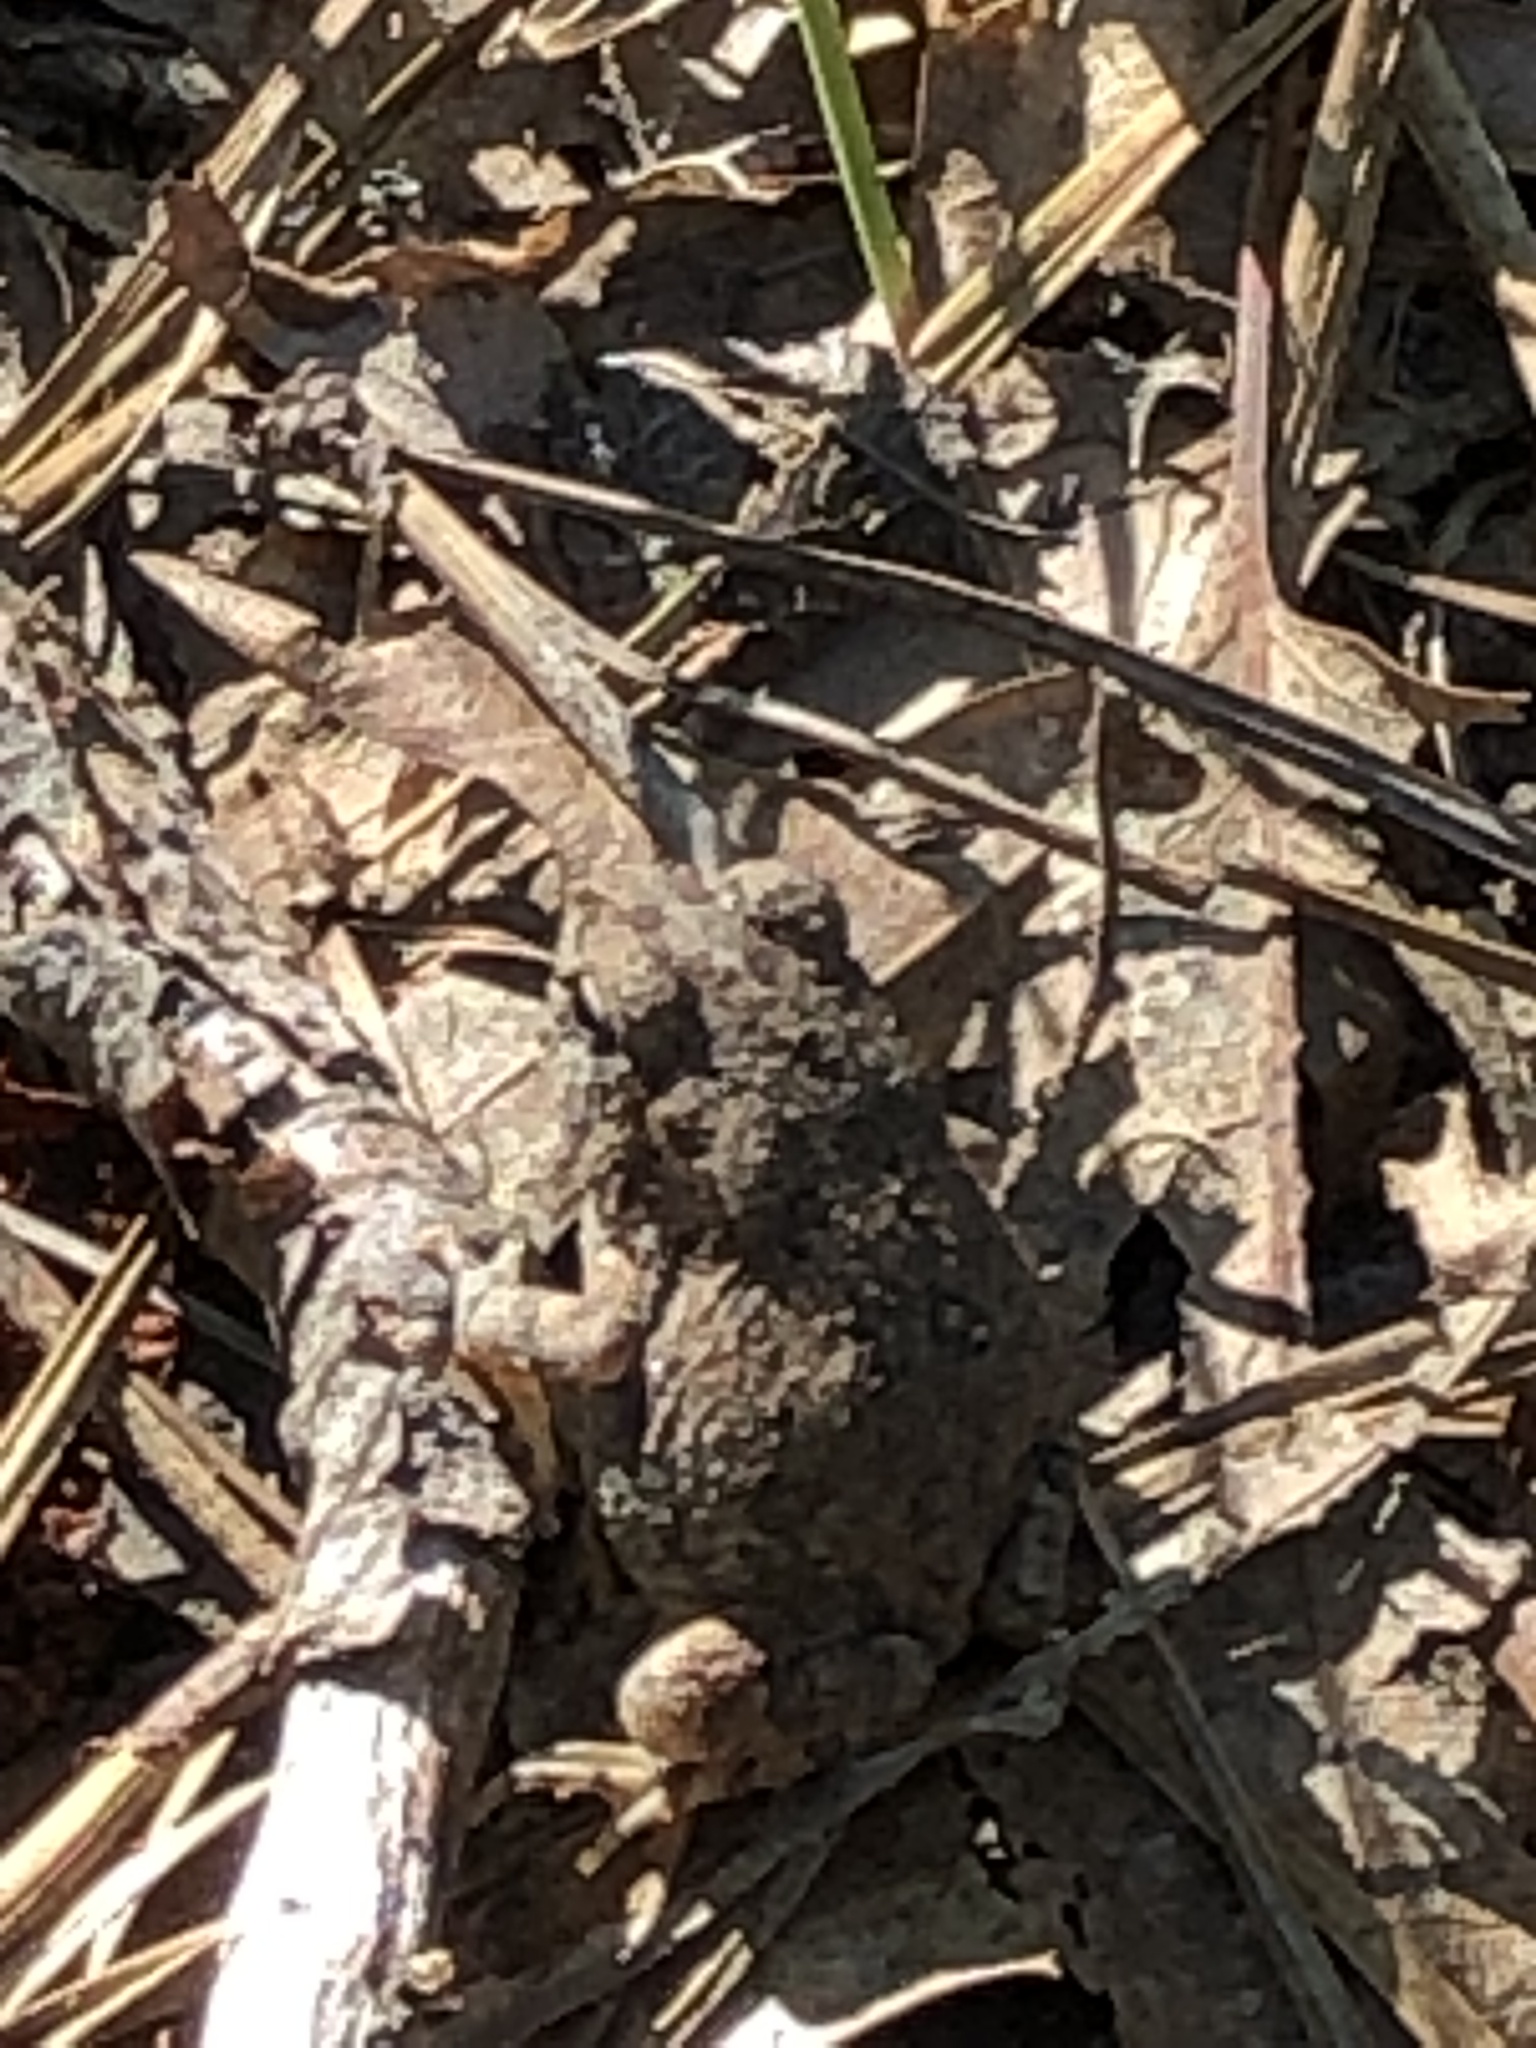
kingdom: Animalia
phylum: Chordata
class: Amphibia
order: Anura
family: Bufonidae
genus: Anaxyrus
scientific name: Anaxyrus fowleri
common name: Fowler's toad
